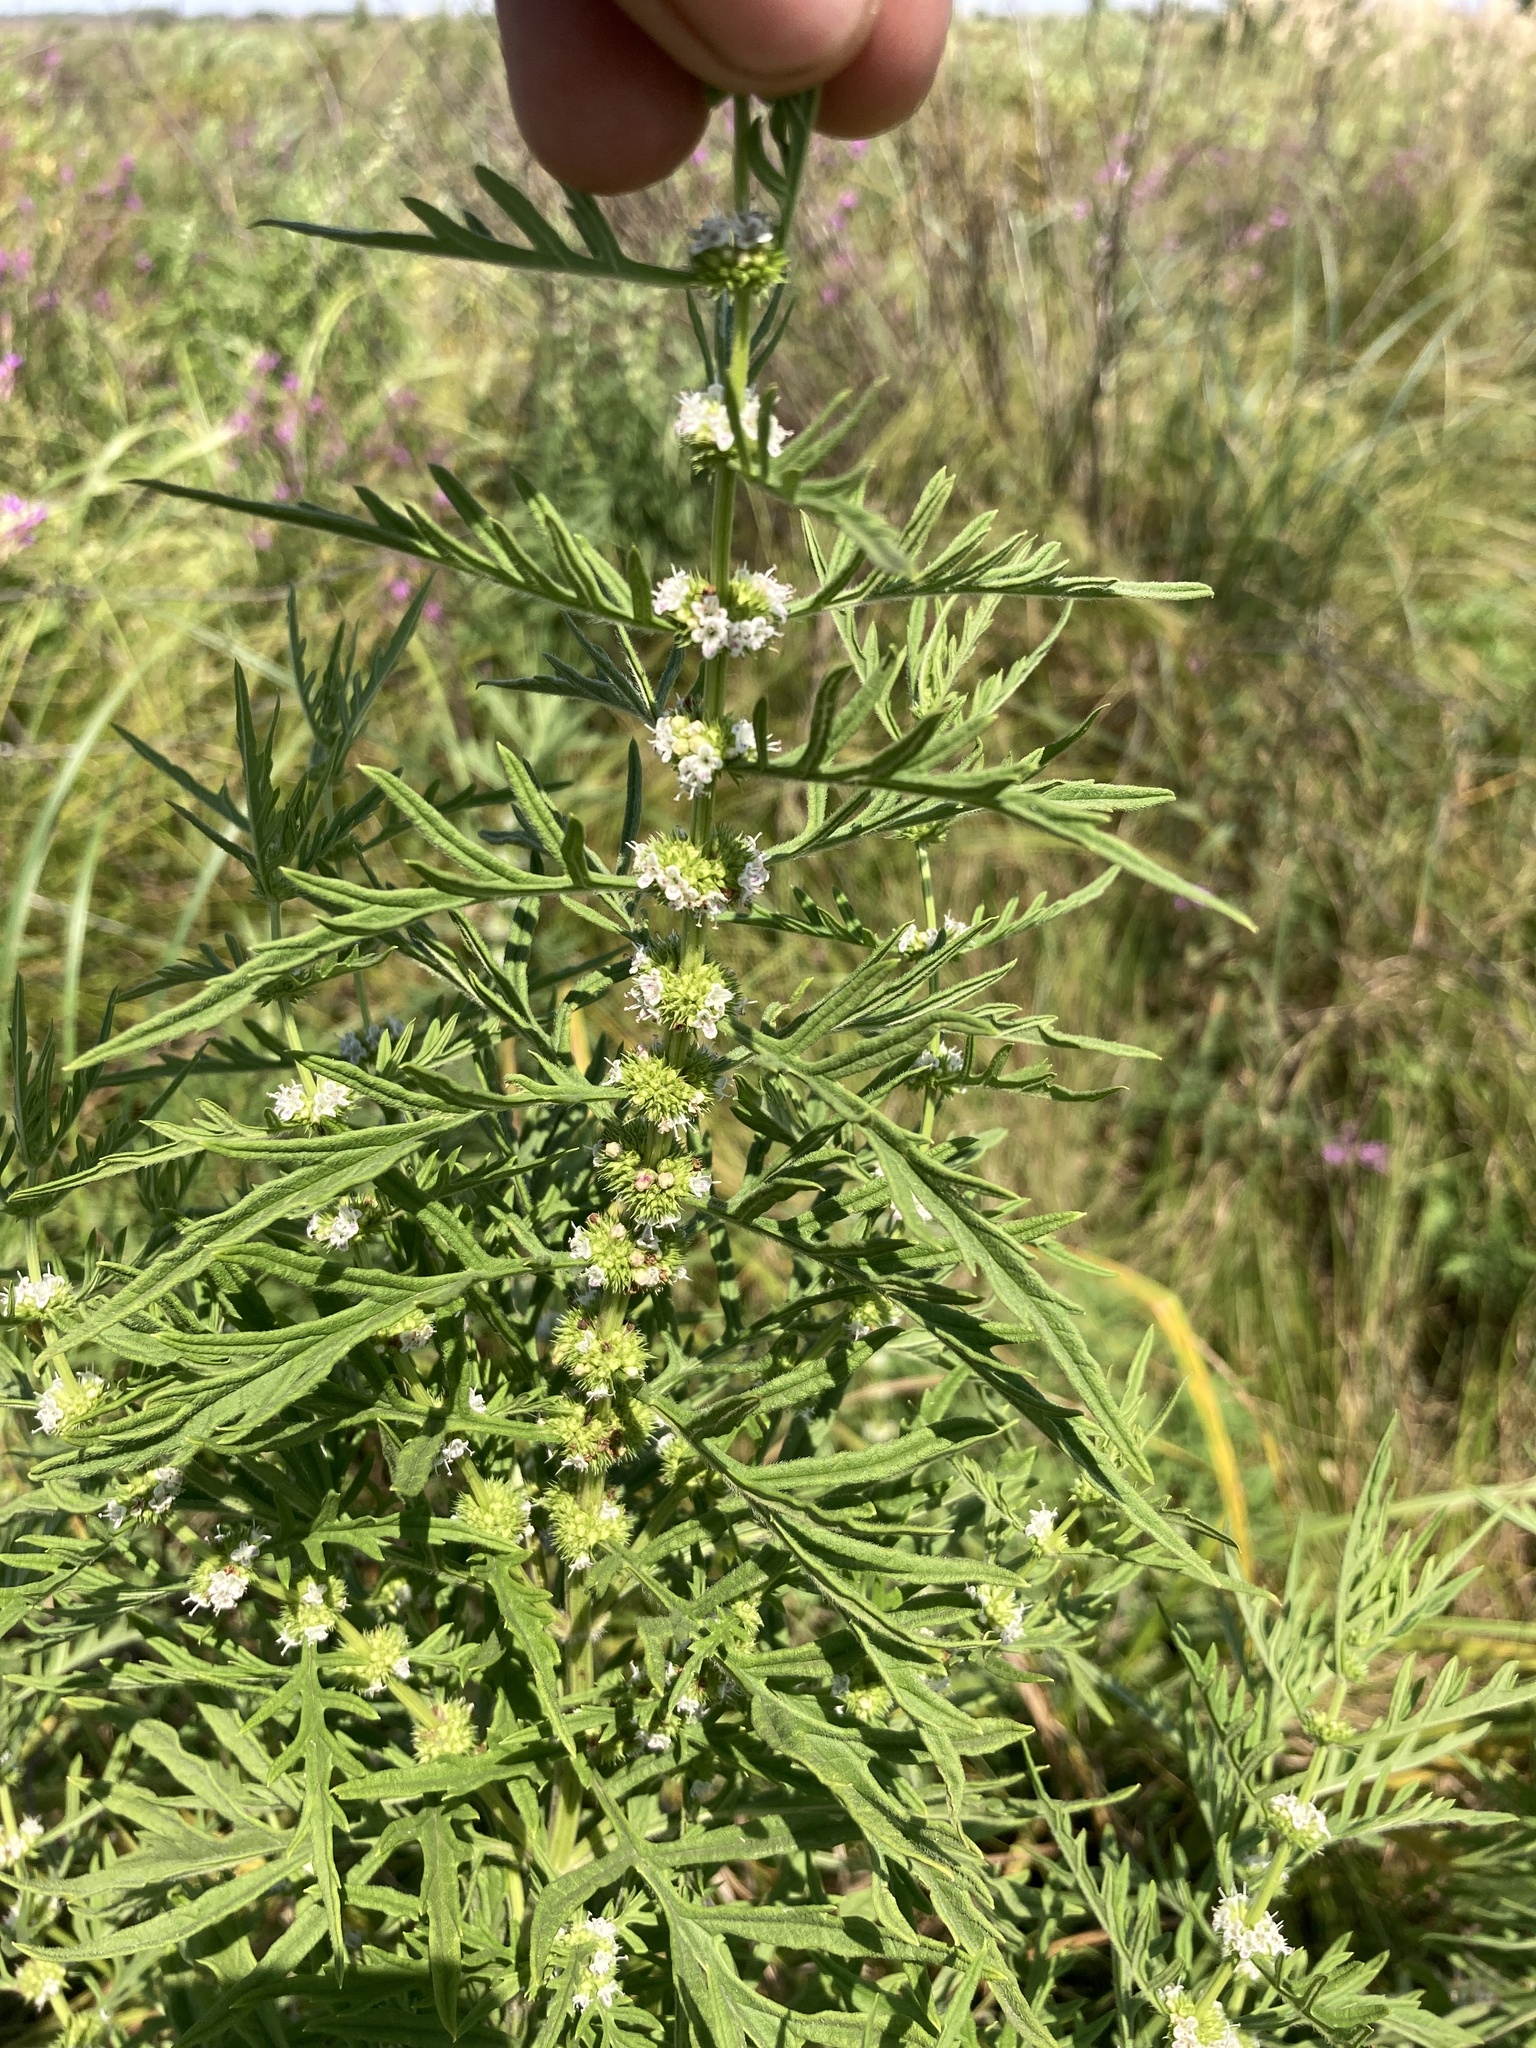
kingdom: Plantae
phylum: Tracheophyta
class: Magnoliopsida
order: Lamiales
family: Lamiaceae
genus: Lycopus
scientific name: Lycopus exaltatus
